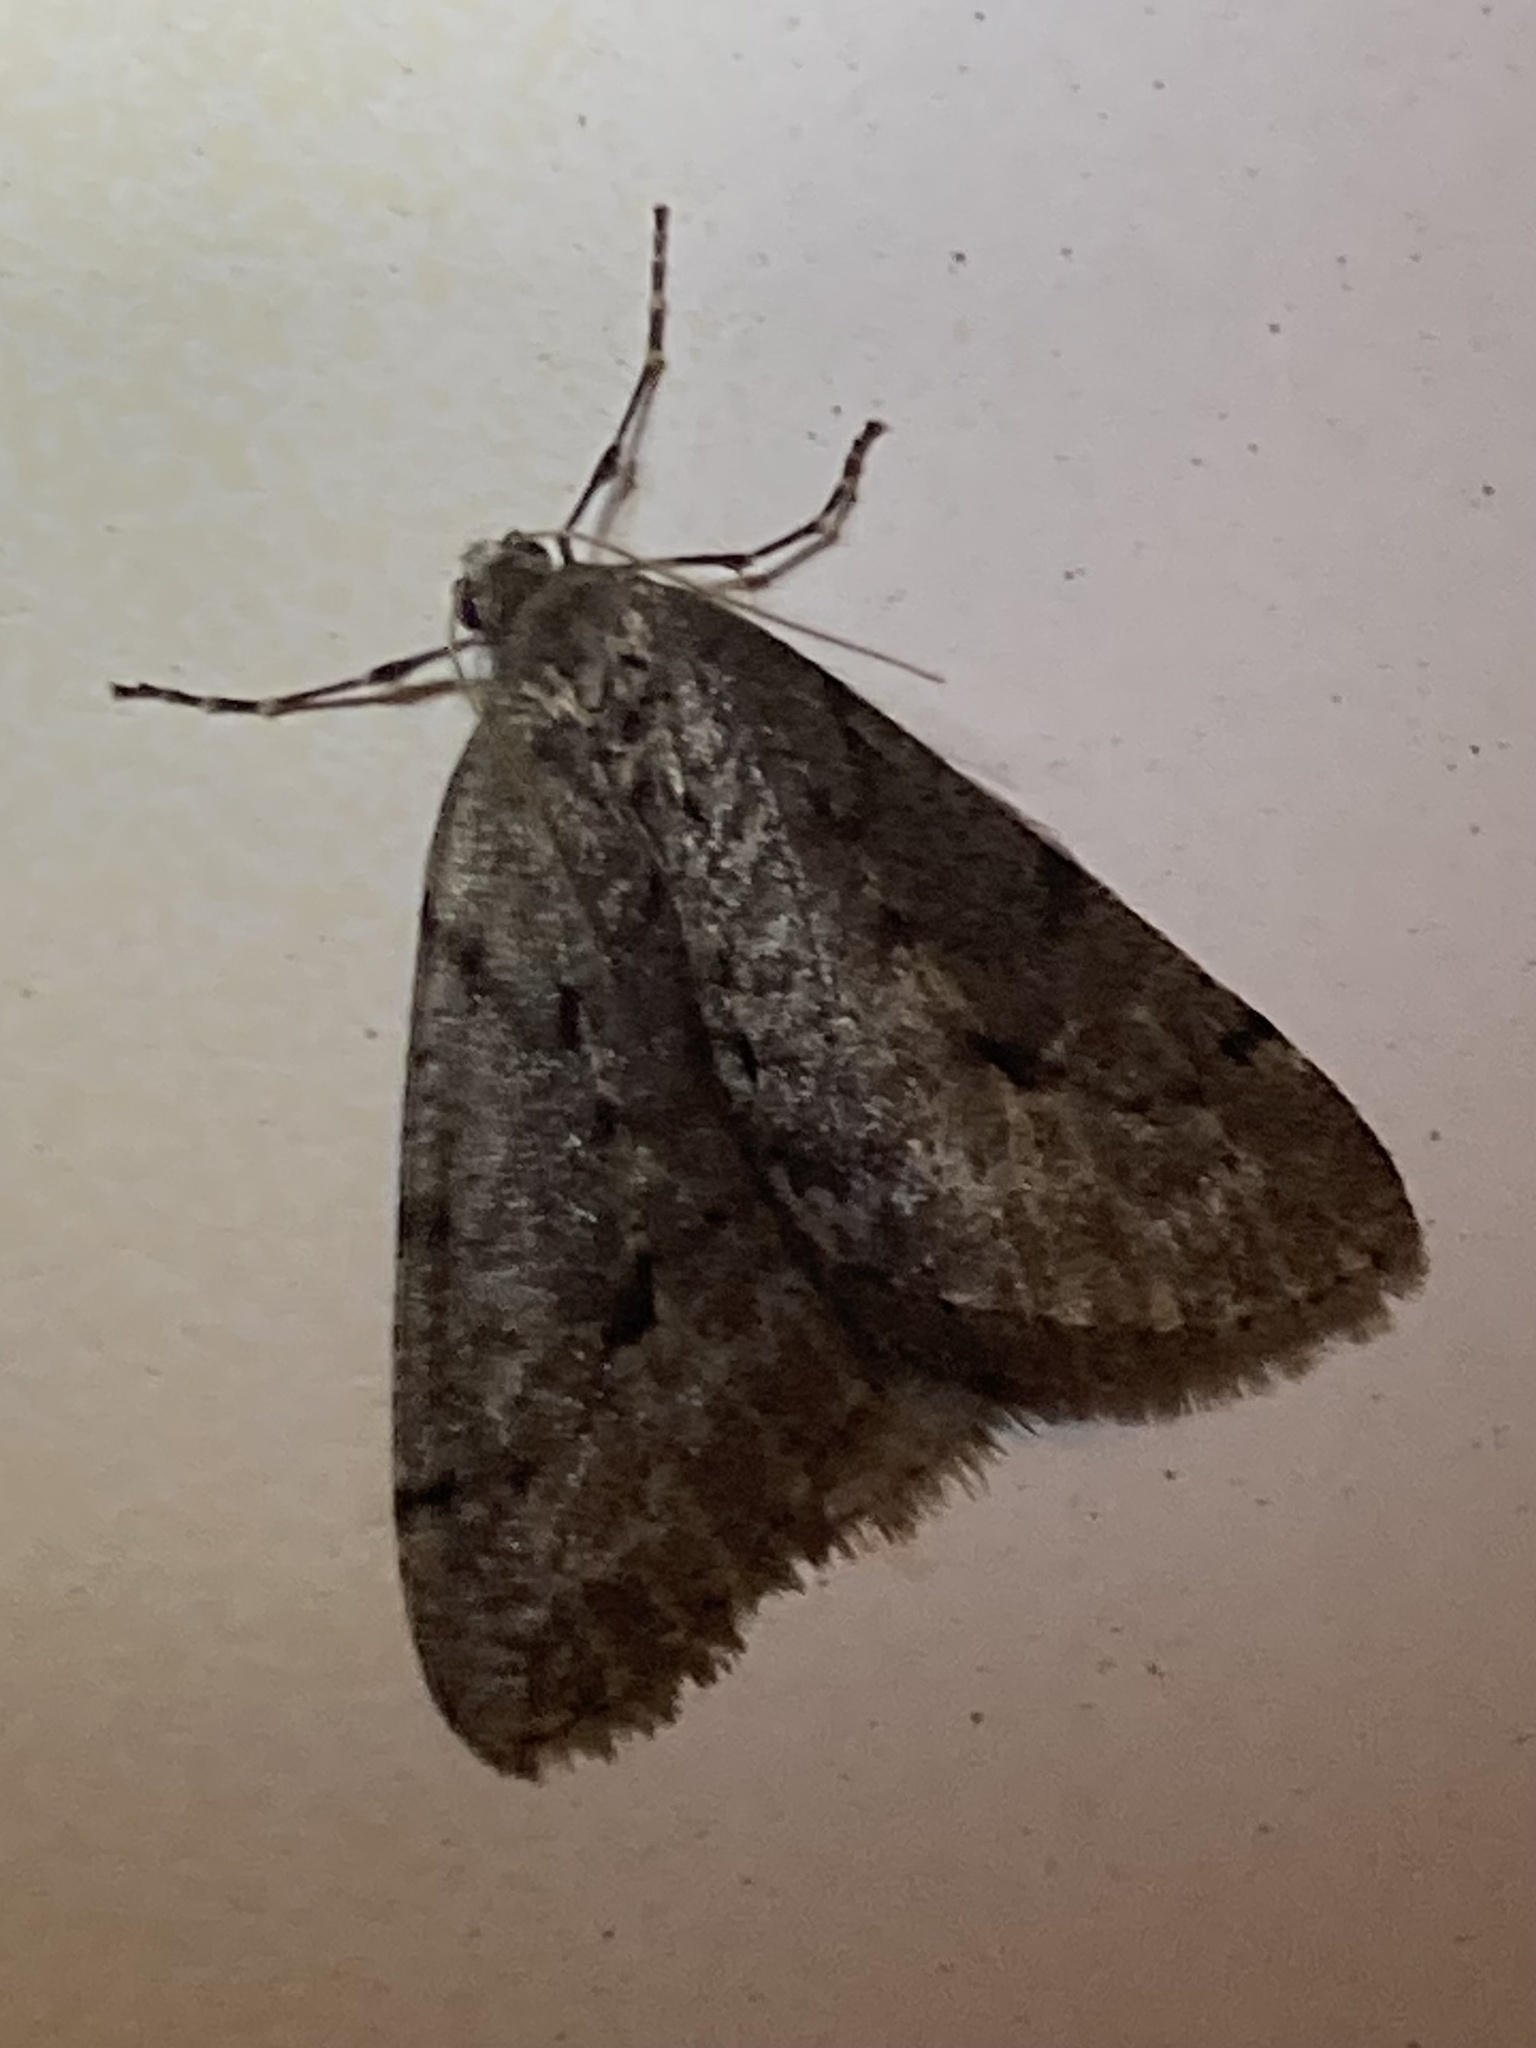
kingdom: Animalia
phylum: Arthropoda
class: Insecta
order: Lepidoptera
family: Geometridae
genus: Paleacrita
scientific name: Paleacrita vernata
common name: Spring cankerworm
